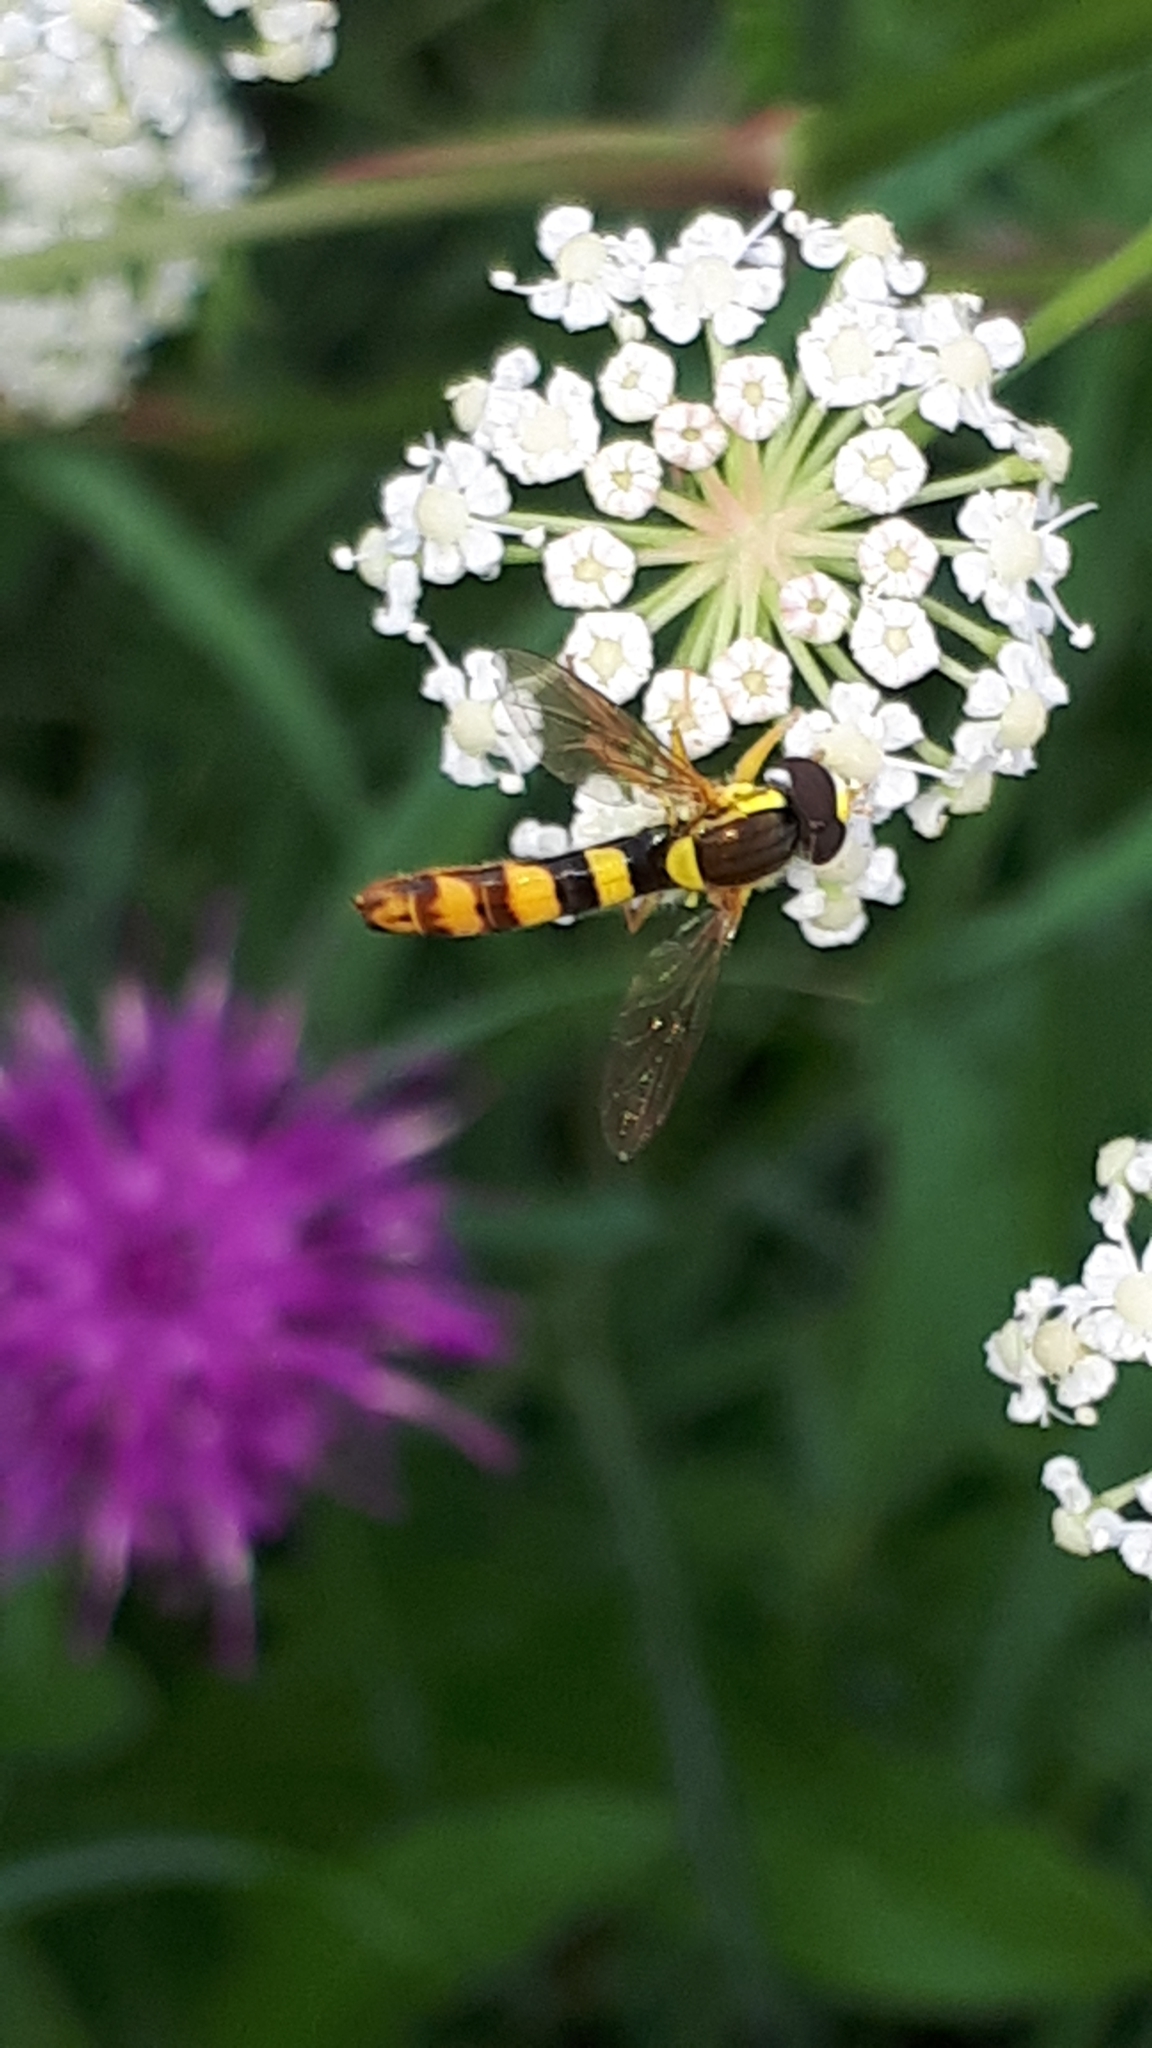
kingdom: Animalia
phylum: Arthropoda
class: Insecta
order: Diptera
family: Syrphidae
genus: Sphaerophoria
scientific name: Sphaerophoria scripta
